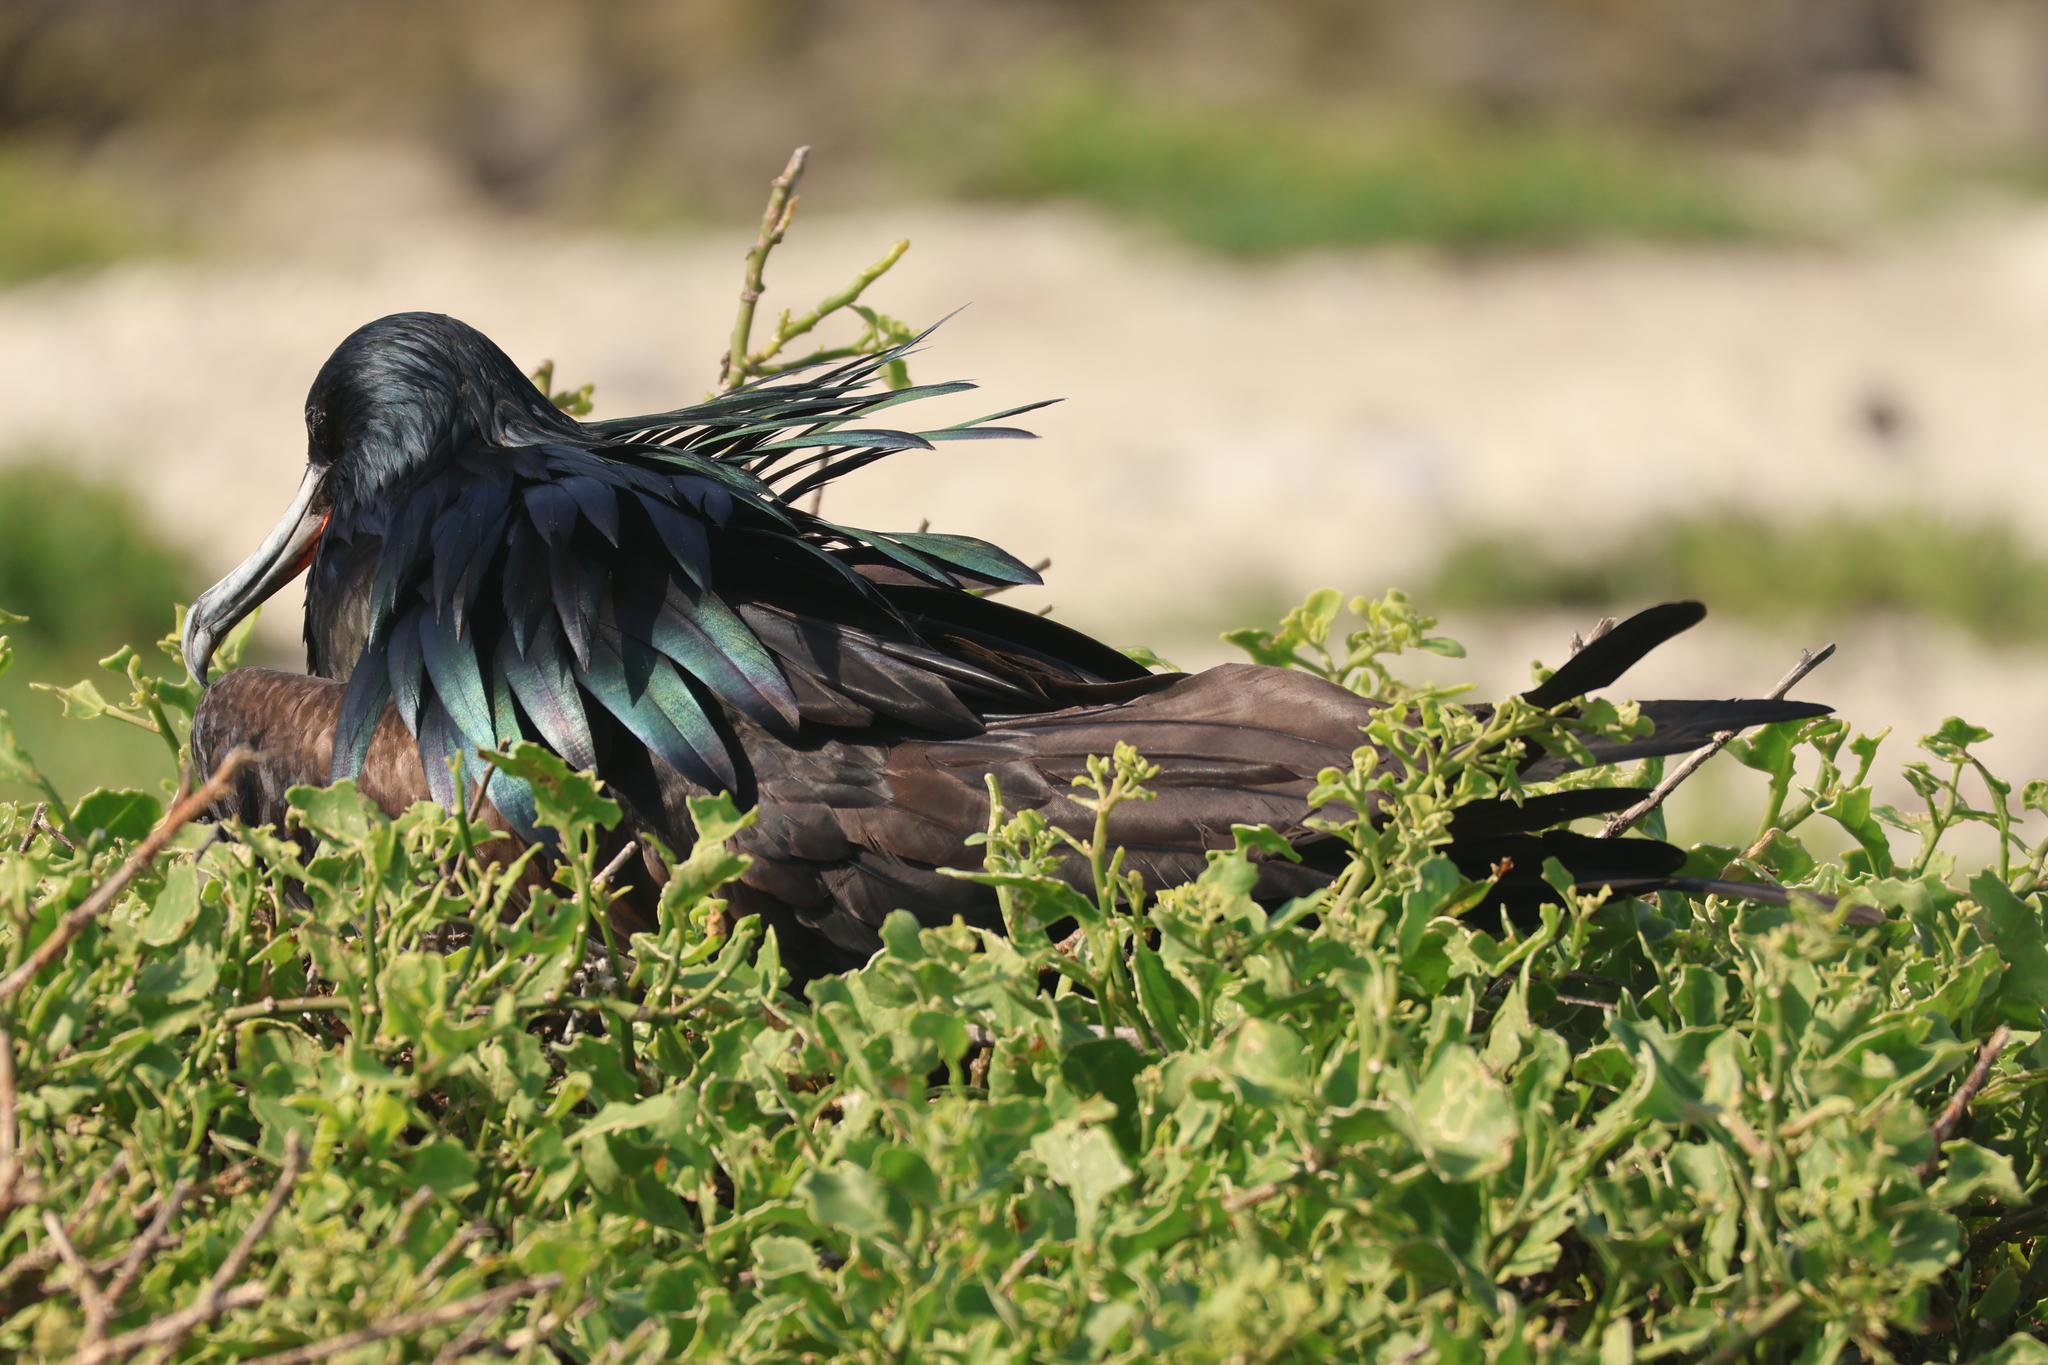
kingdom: Animalia
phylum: Chordata
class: Aves
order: Suliformes
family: Fregatidae
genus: Fregata
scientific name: Fregata minor
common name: Great frigatebird
